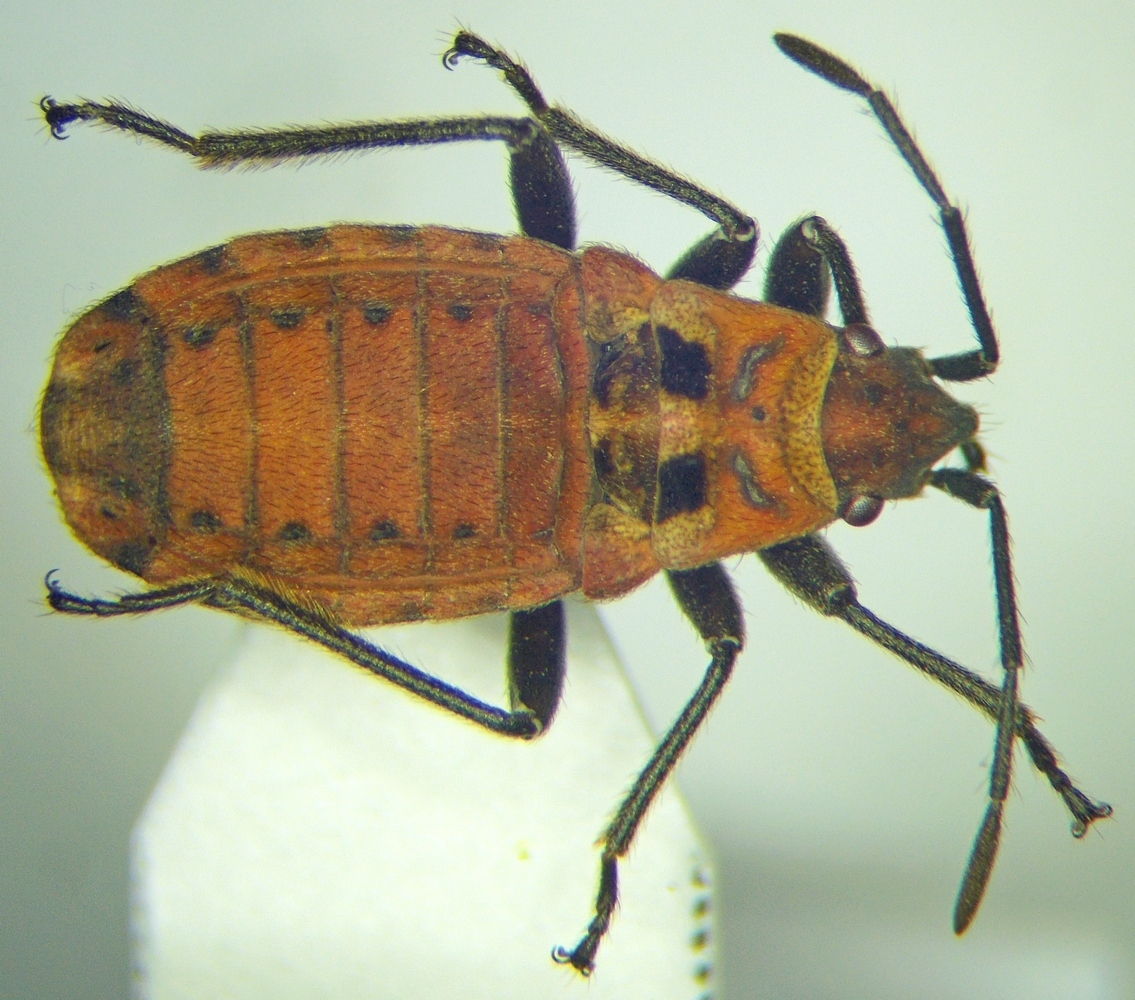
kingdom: Animalia
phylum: Arthropoda
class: Insecta
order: Hemiptera
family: Lygaeidae
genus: Apterola
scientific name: Apterola kunckeli
